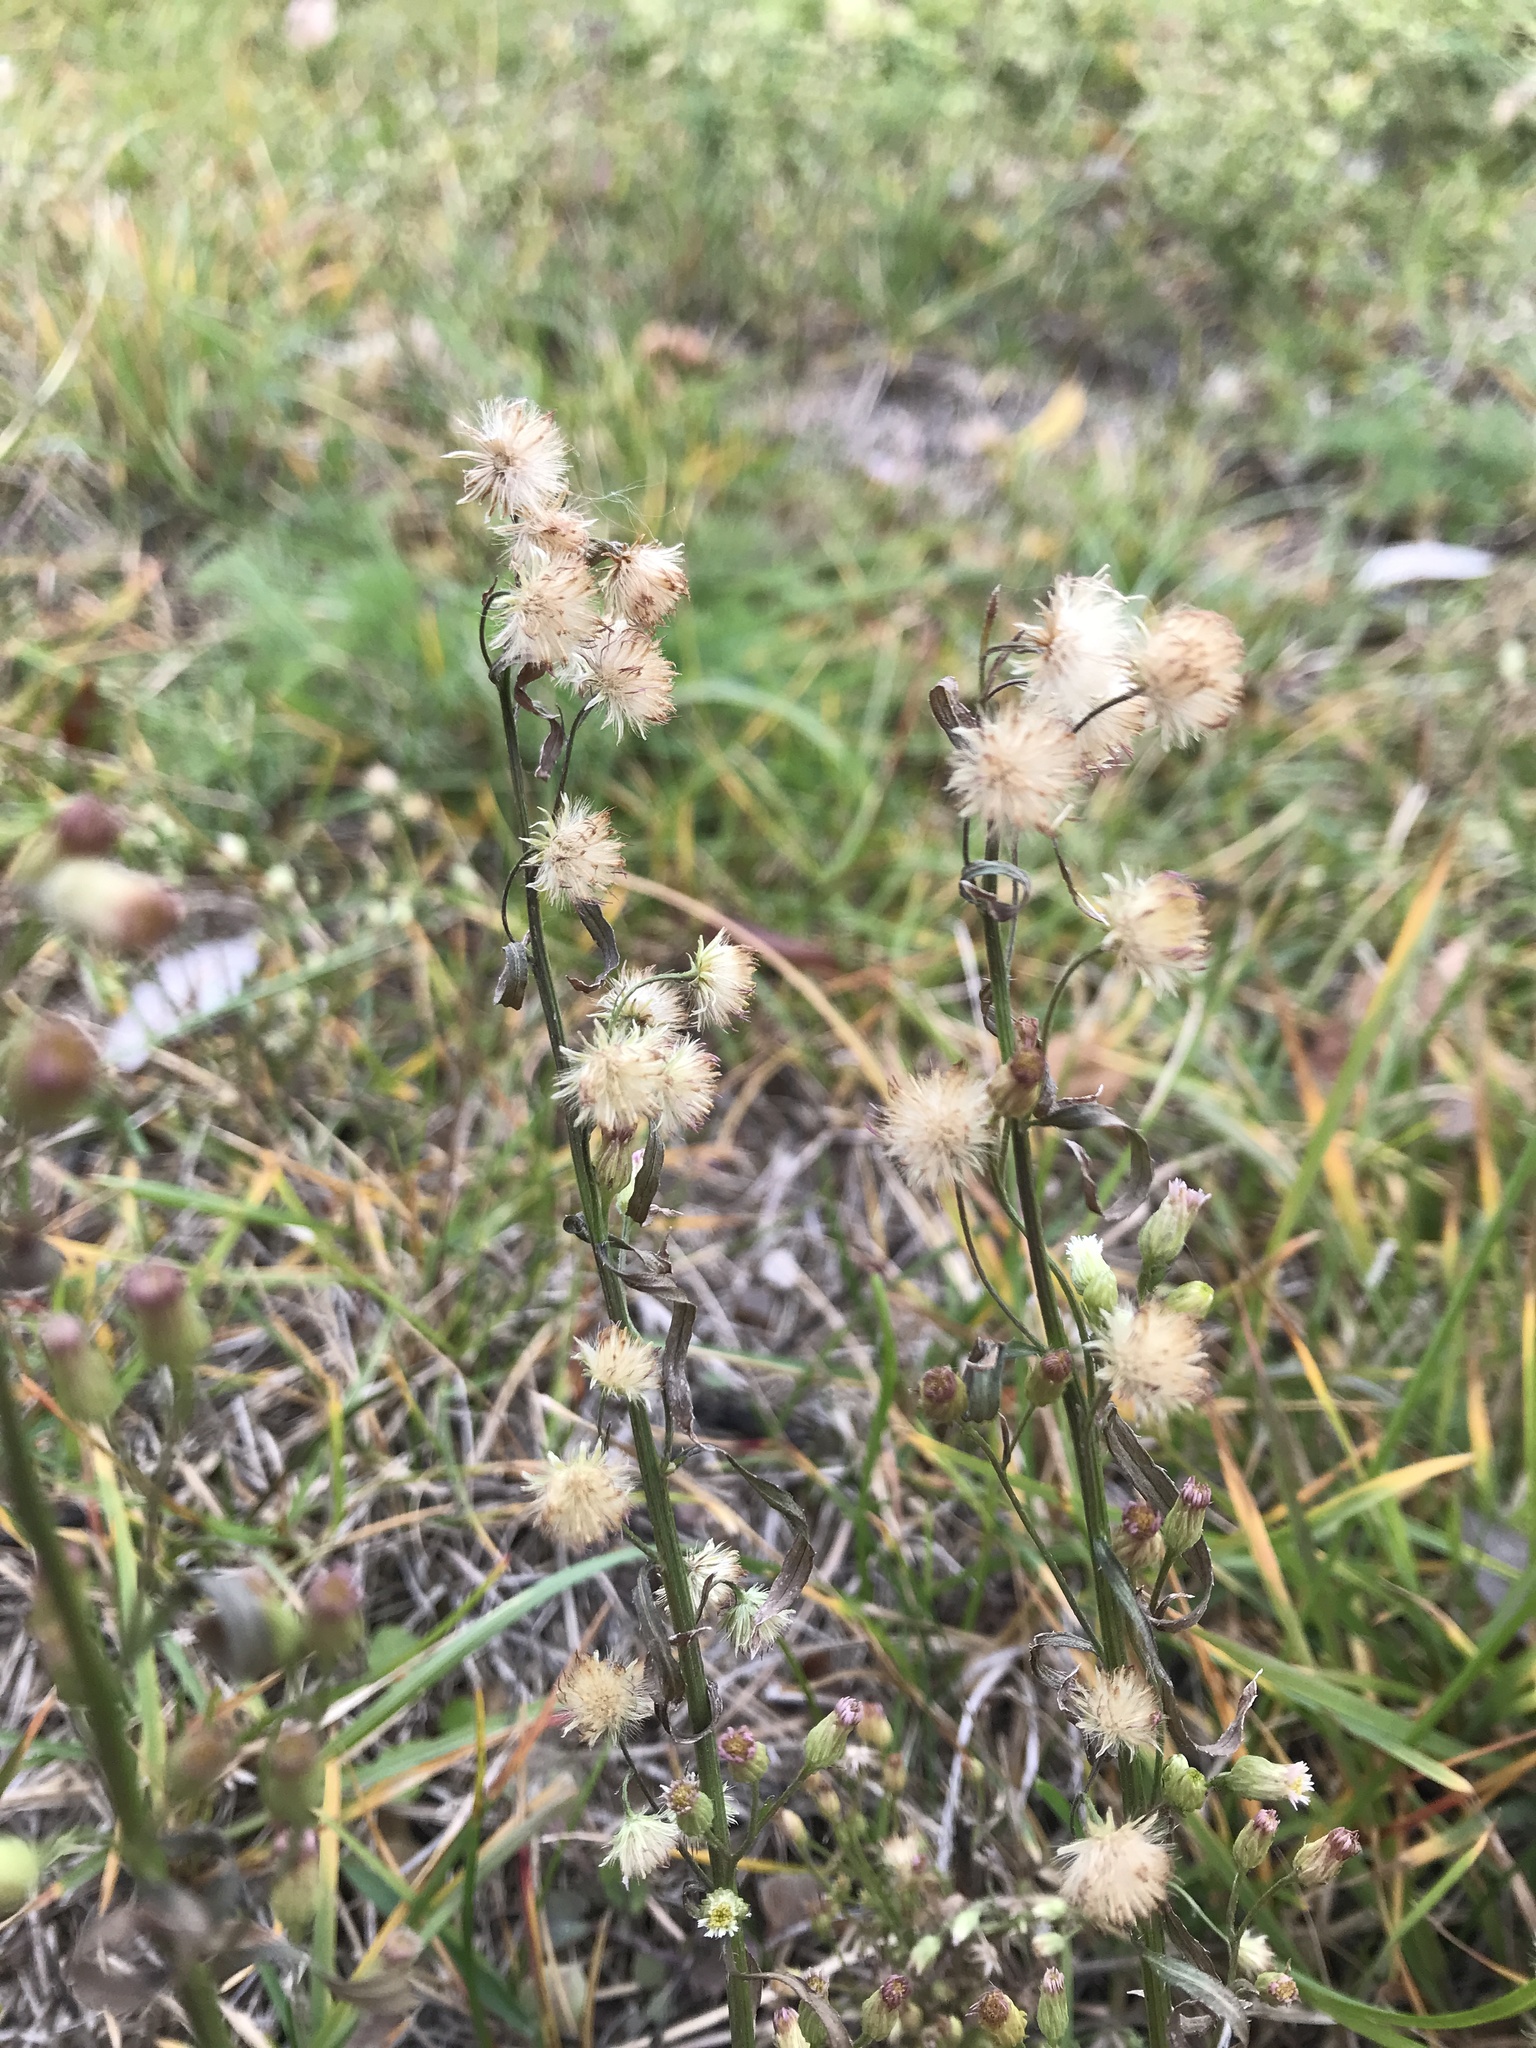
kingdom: Plantae
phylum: Tracheophyta
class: Magnoliopsida
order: Asterales
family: Asteraceae
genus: Erigeron
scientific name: Erigeron canadensis
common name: Canadian fleabane
